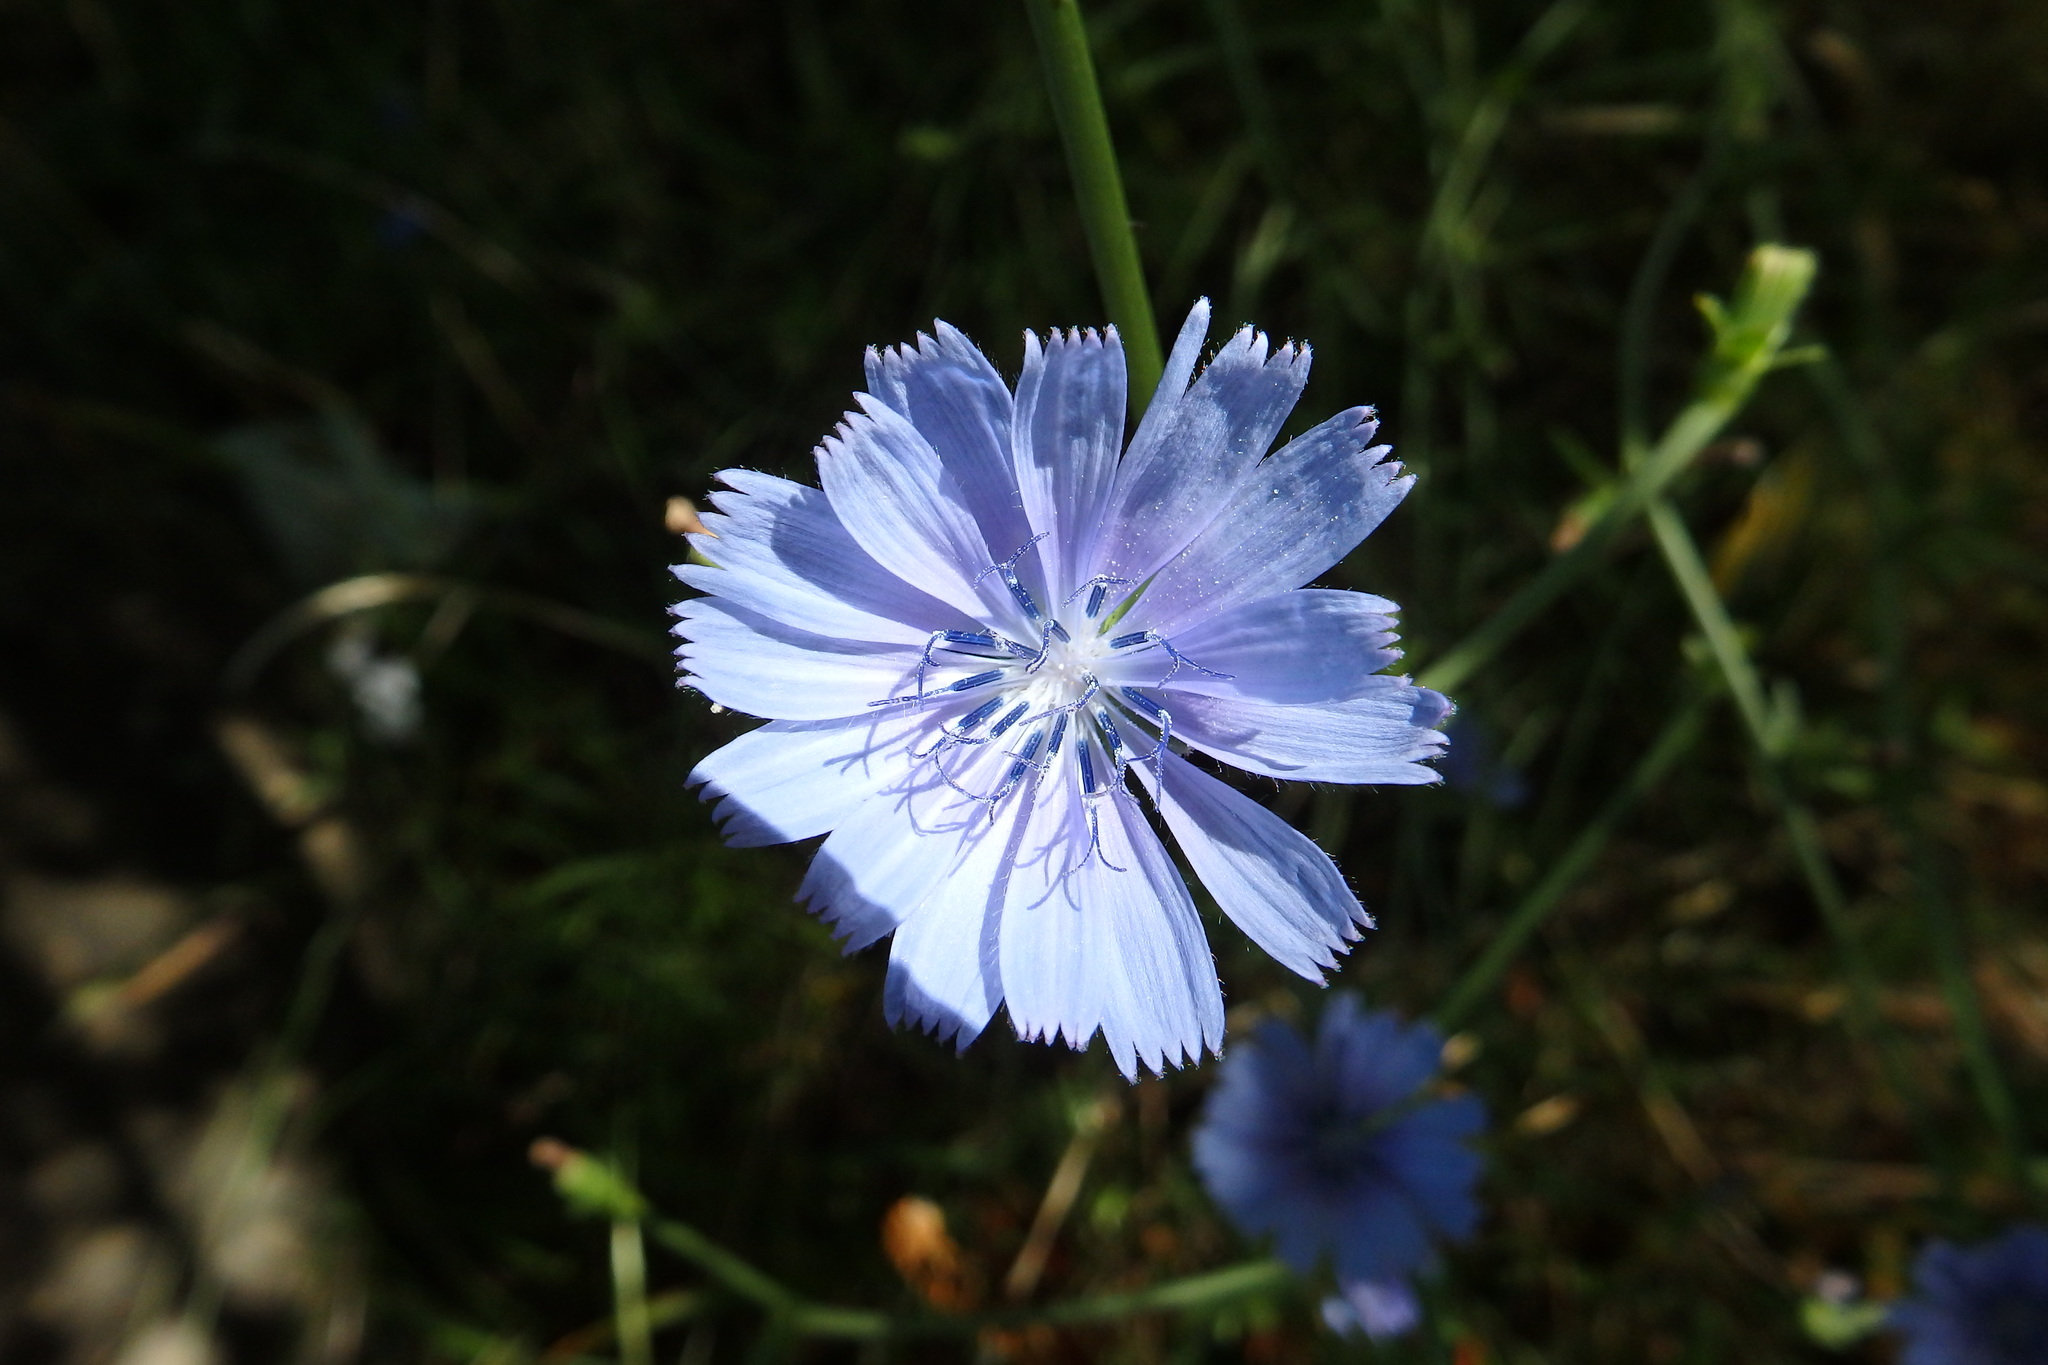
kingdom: Plantae
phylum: Tracheophyta
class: Magnoliopsida
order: Asterales
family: Asteraceae
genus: Cichorium
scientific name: Cichorium intybus
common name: Chicory
